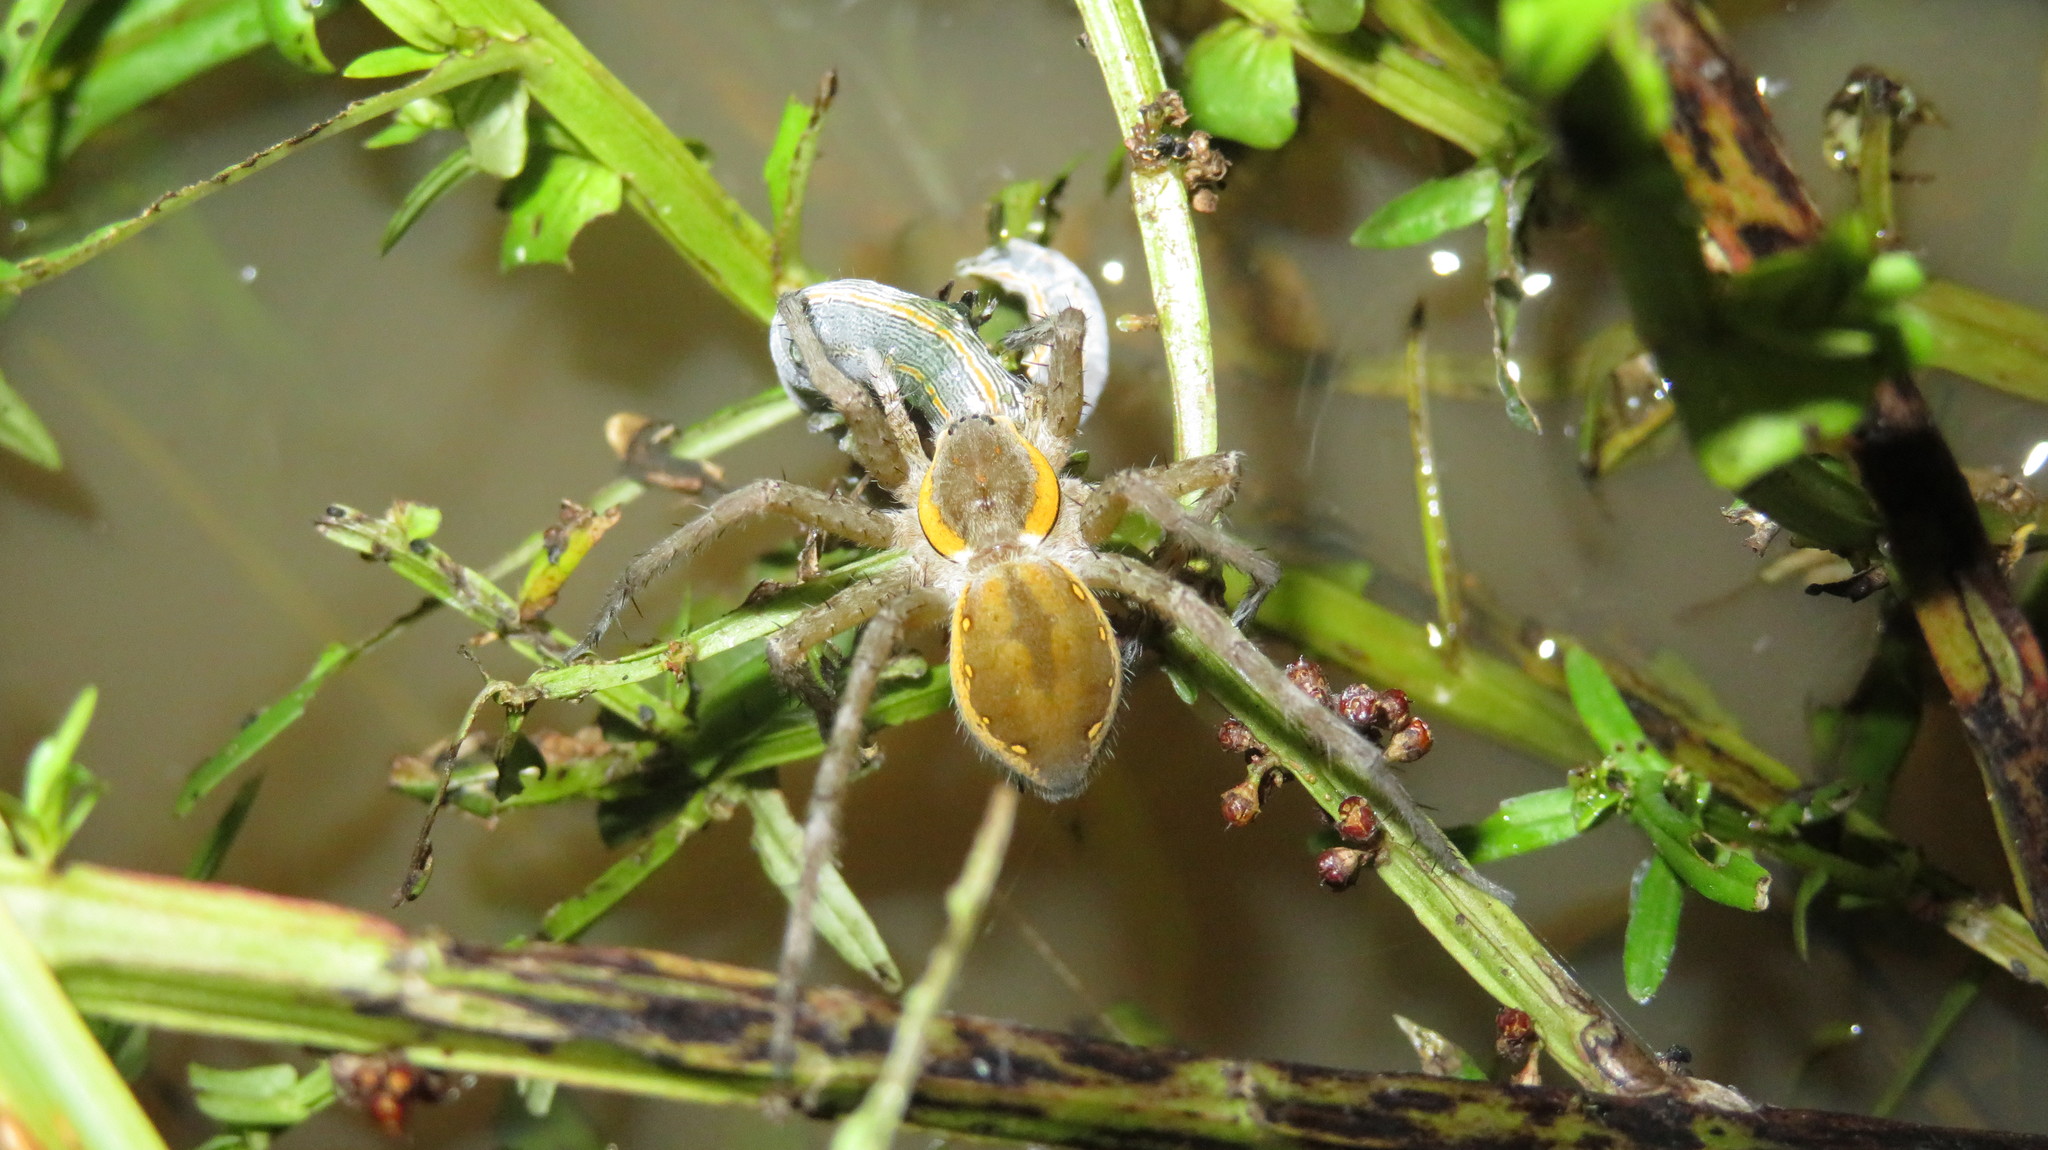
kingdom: Animalia
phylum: Arthropoda
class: Arachnida
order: Araneae
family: Pisauridae
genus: Nilus
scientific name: Nilus margaritatus
